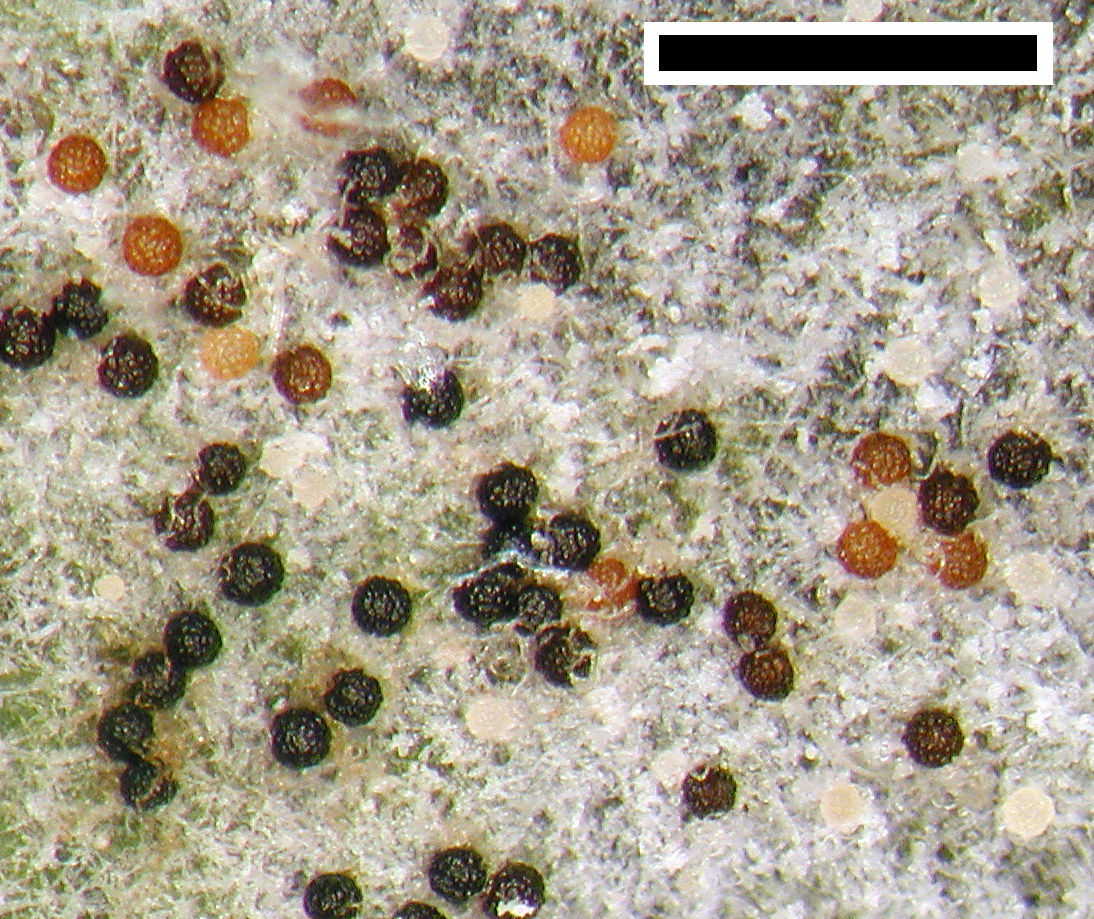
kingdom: Fungi
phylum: Ascomycota
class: Leotiomycetes
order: Helotiales
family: Erysiphaceae
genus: Podosphaera
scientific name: Podosphaera fusca
